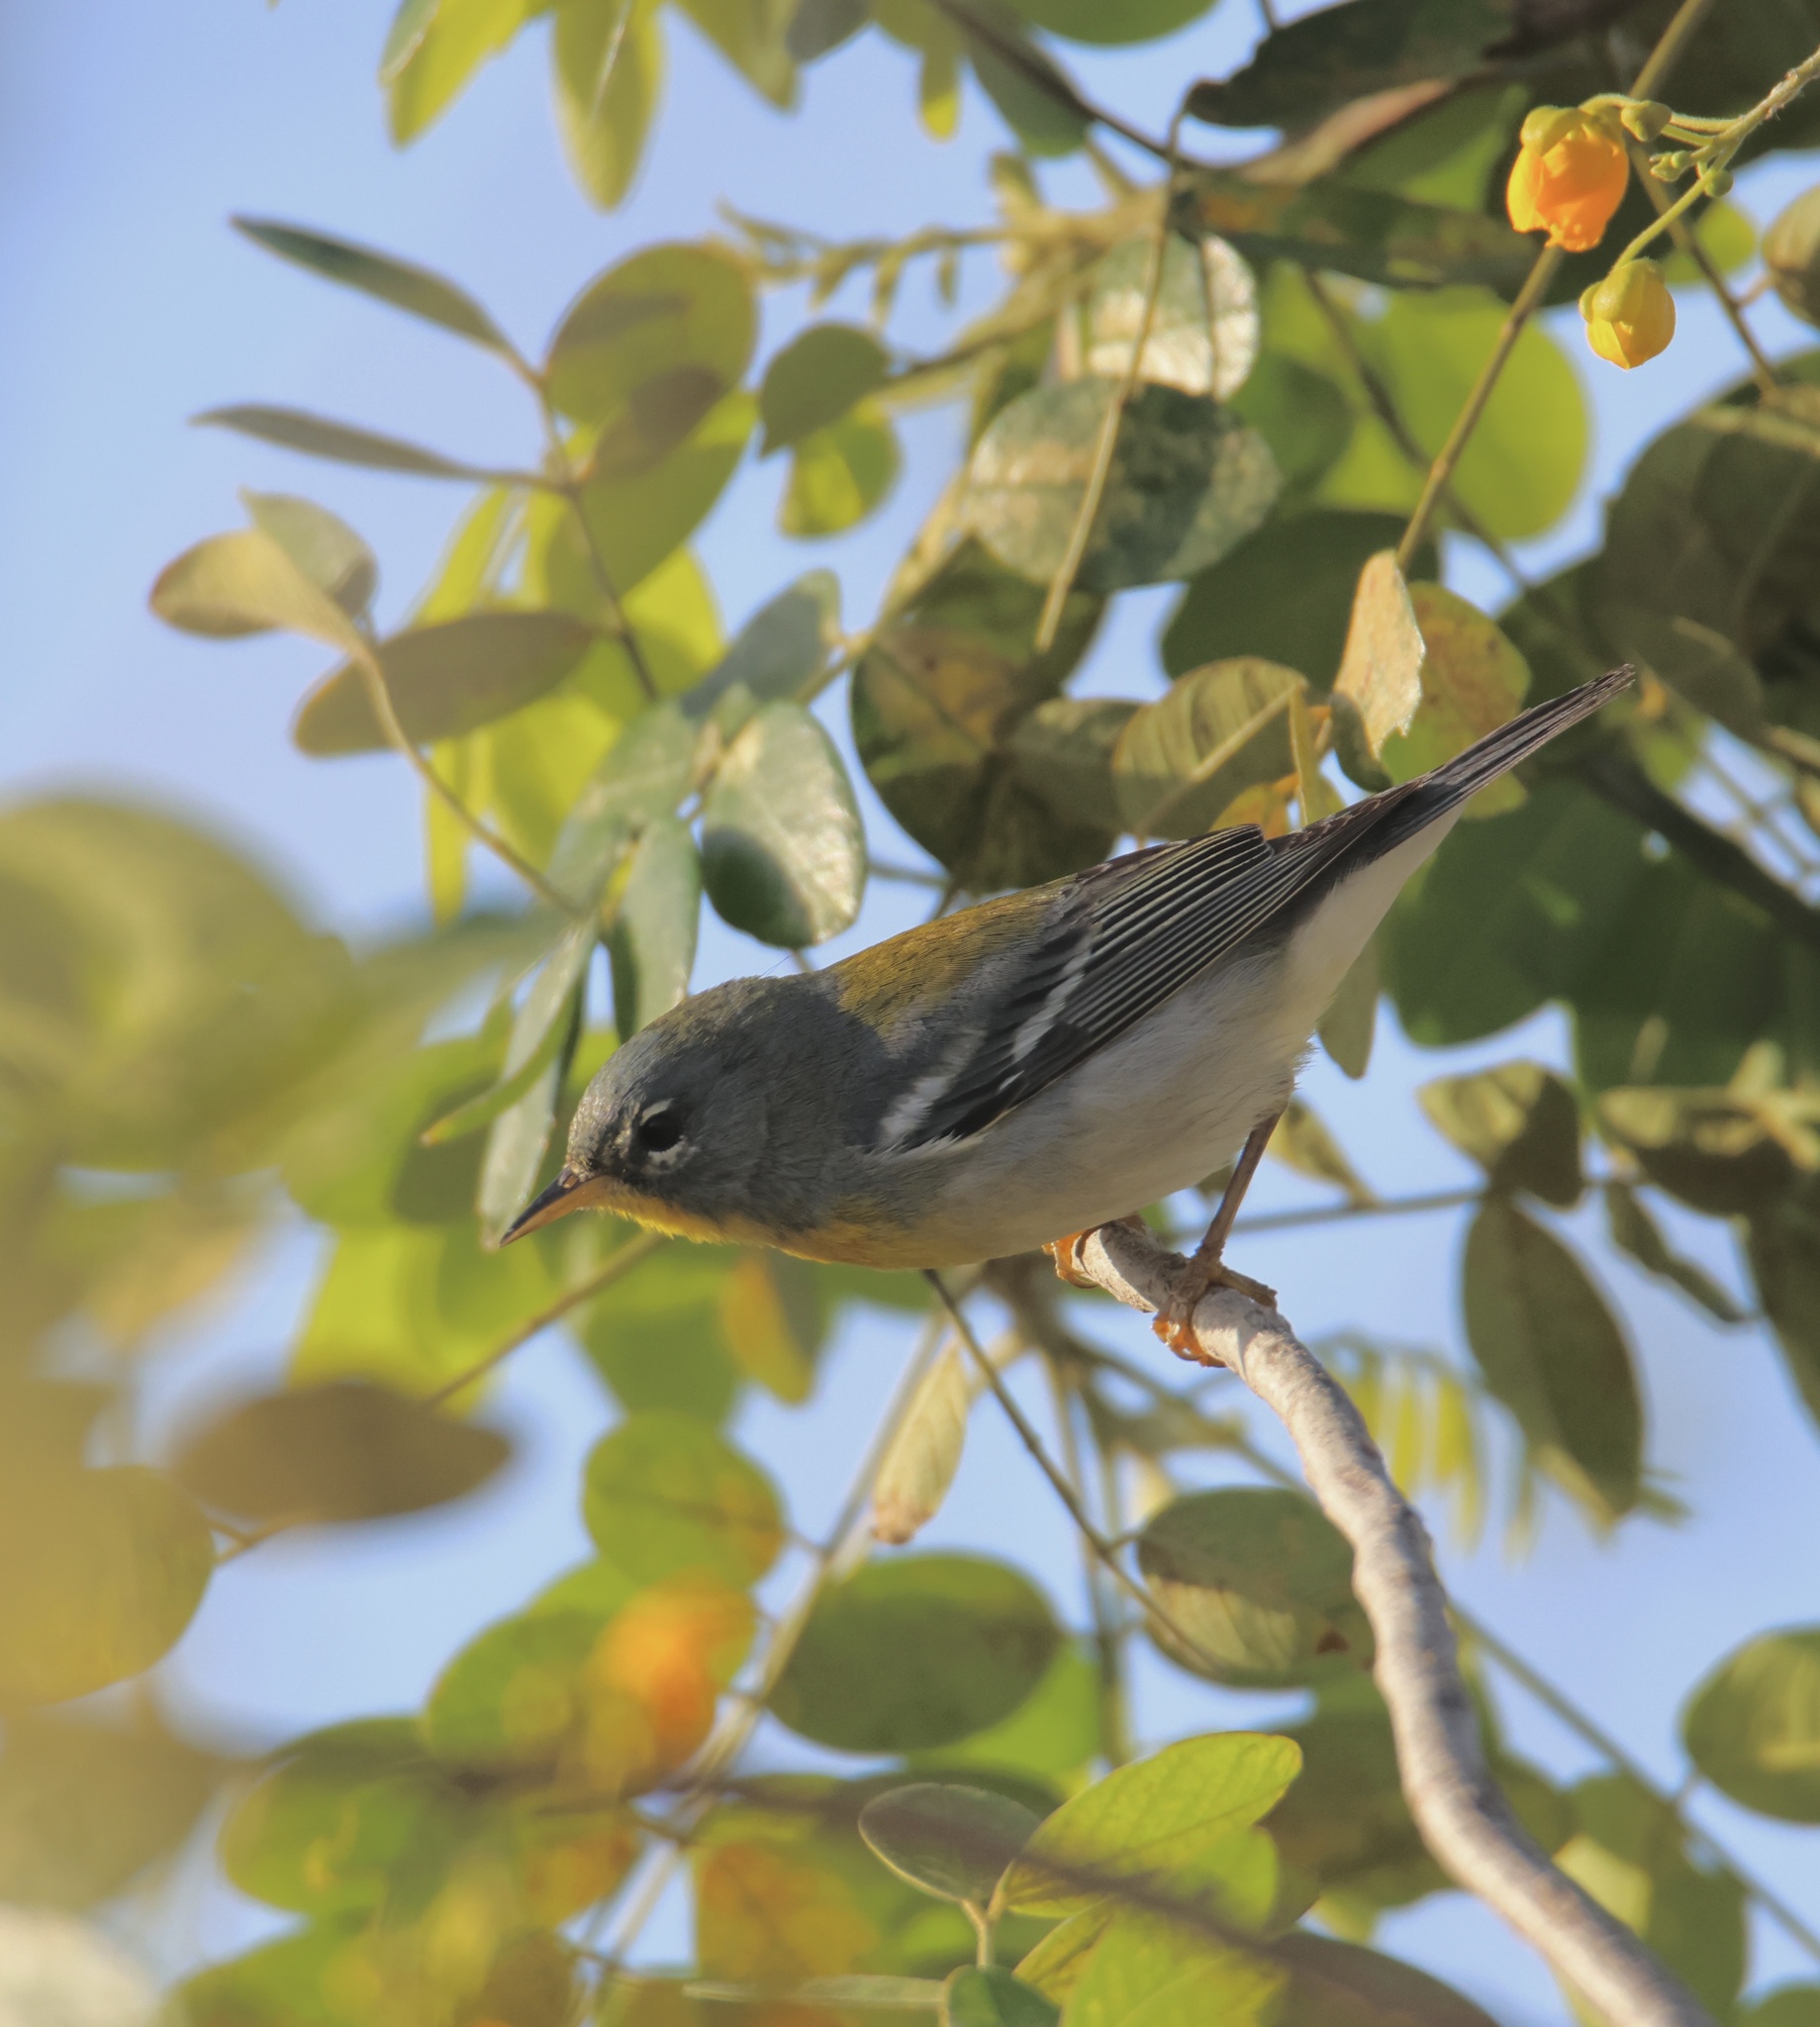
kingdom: Animalia
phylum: Chordata
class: Aves
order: Passeriformes
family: Parulidae
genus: Setophaga
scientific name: Setophaga americana
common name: Northern parula
